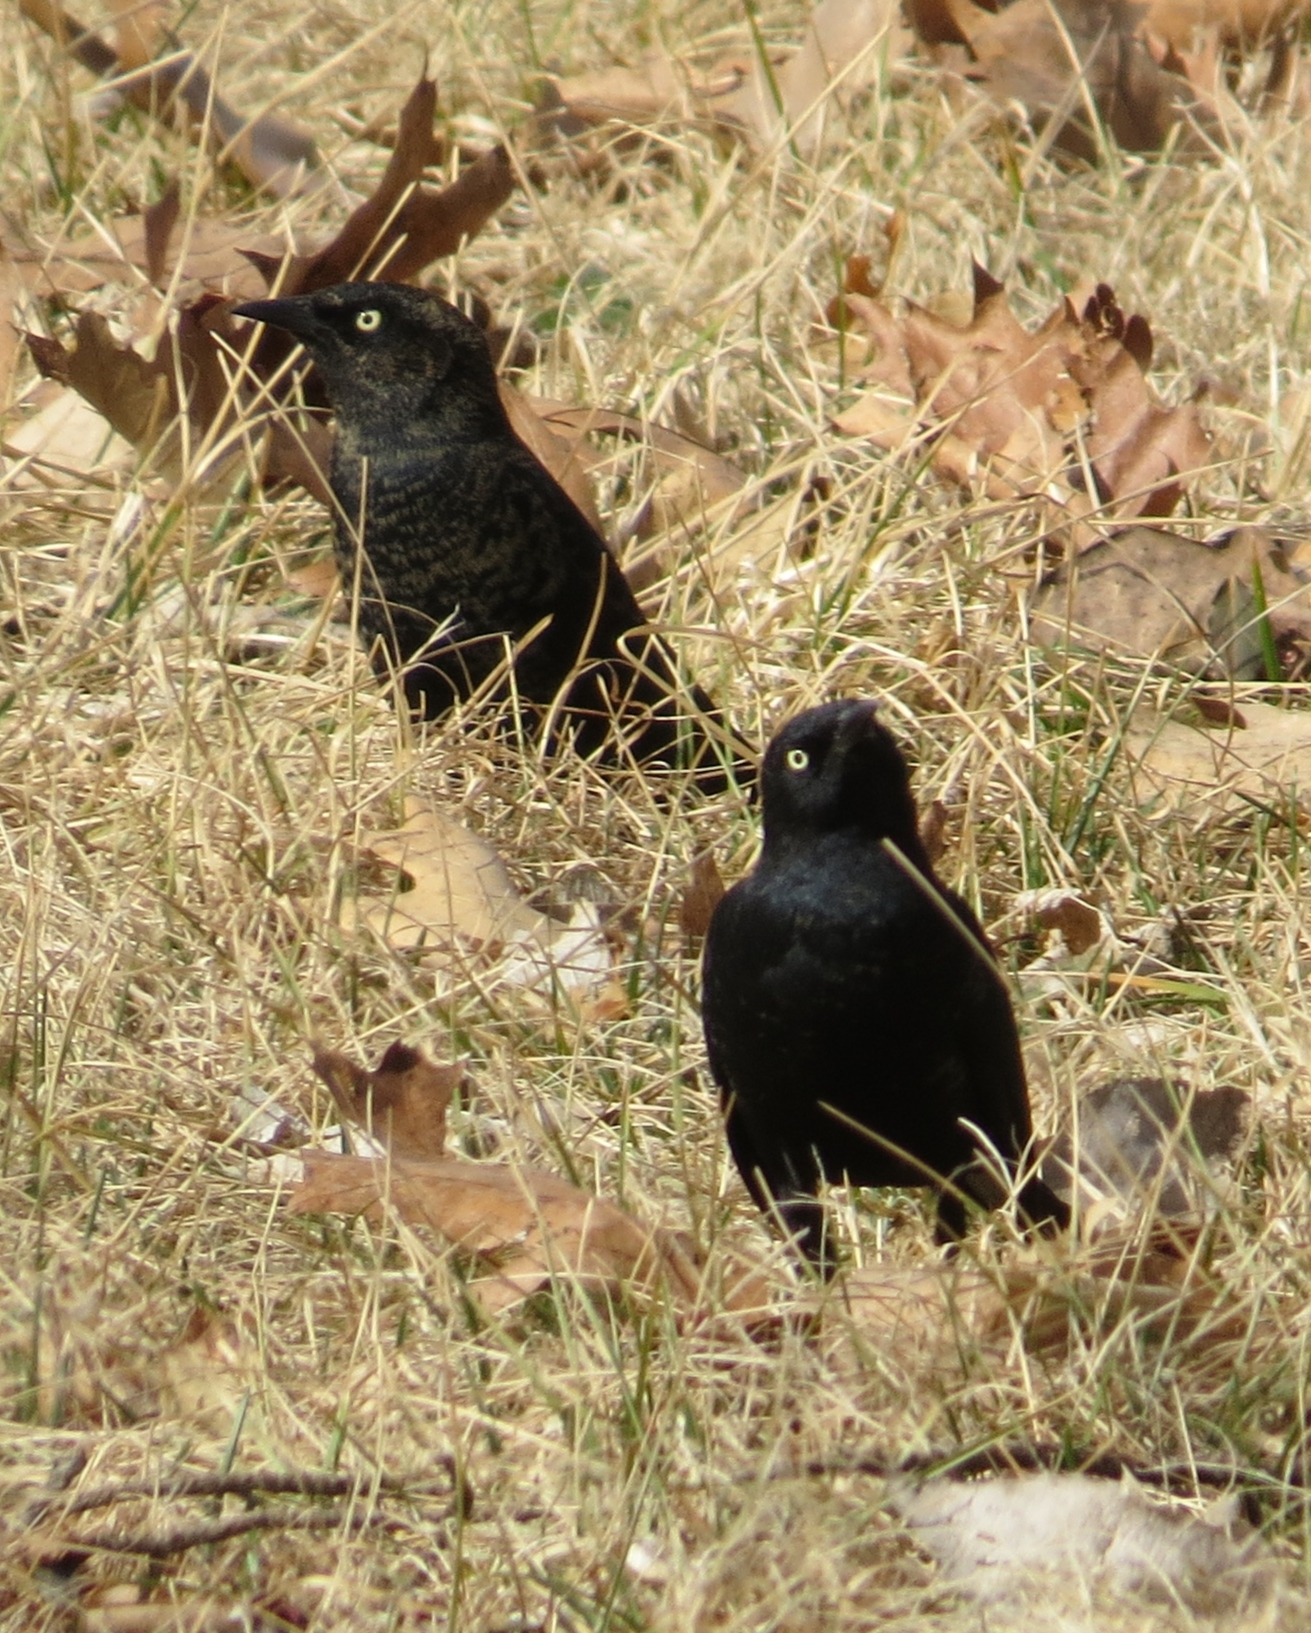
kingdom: Animalia
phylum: Chordata
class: Aves
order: Passeriformes
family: Icteridae
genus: Euphagus
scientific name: Euphagus carolinus
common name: Rusty blackbird
